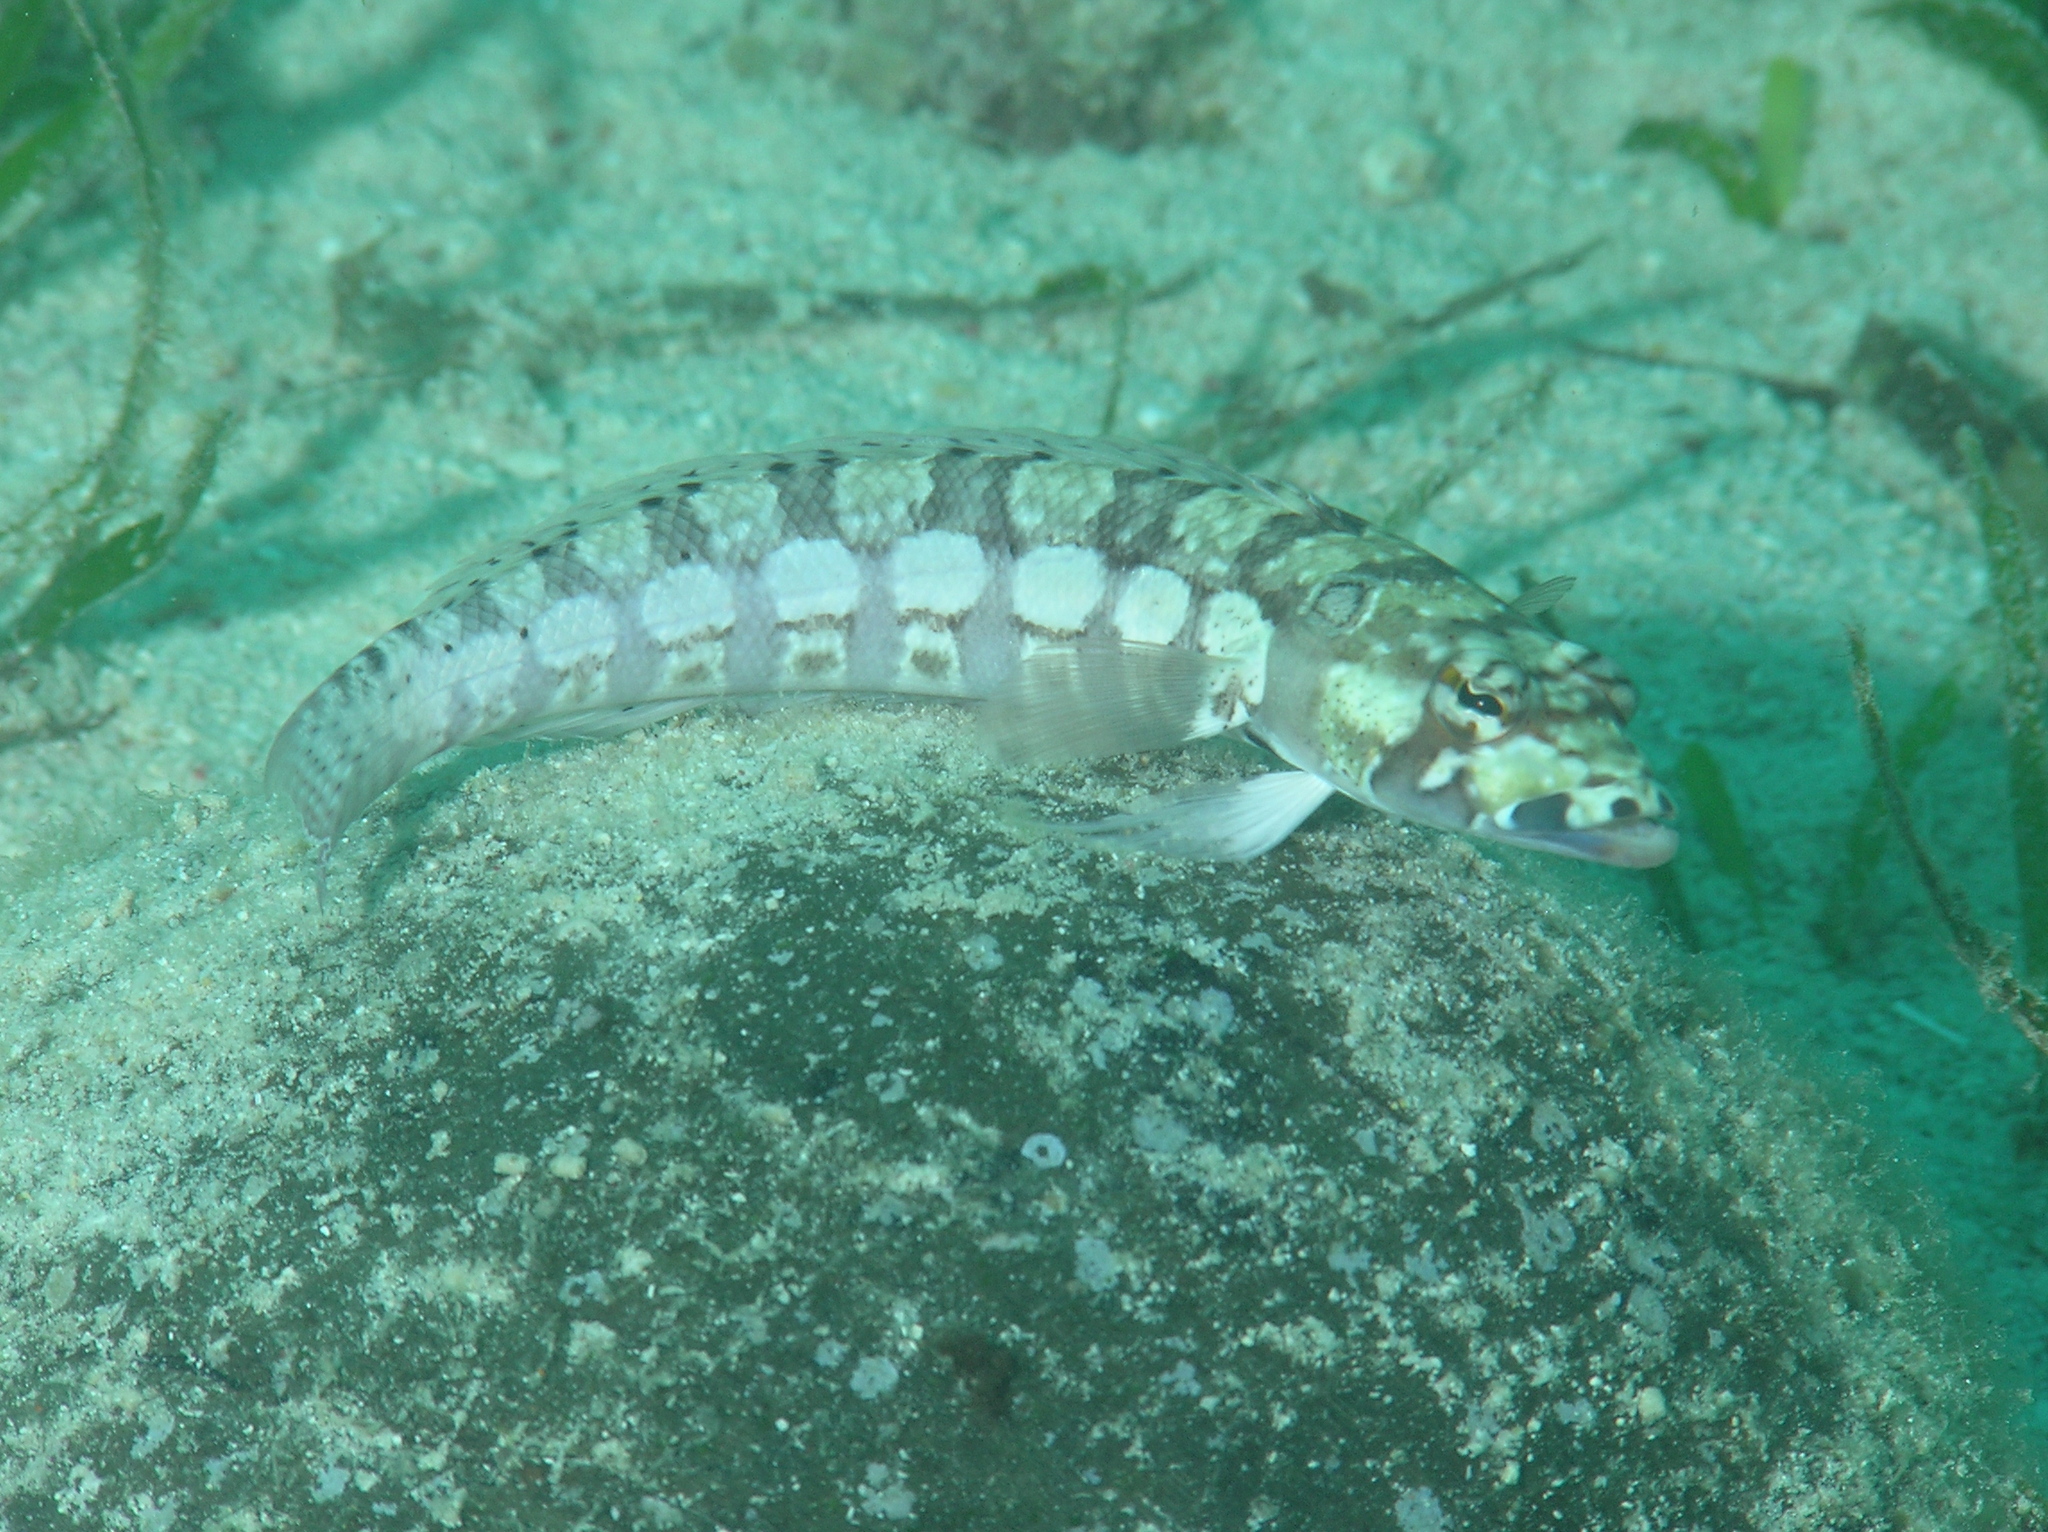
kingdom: Animalia
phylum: Chordata
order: Perciformes
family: Pinguipedidae
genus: Parapercis
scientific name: Parapercis tetracantha
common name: Black-banded grubfish
